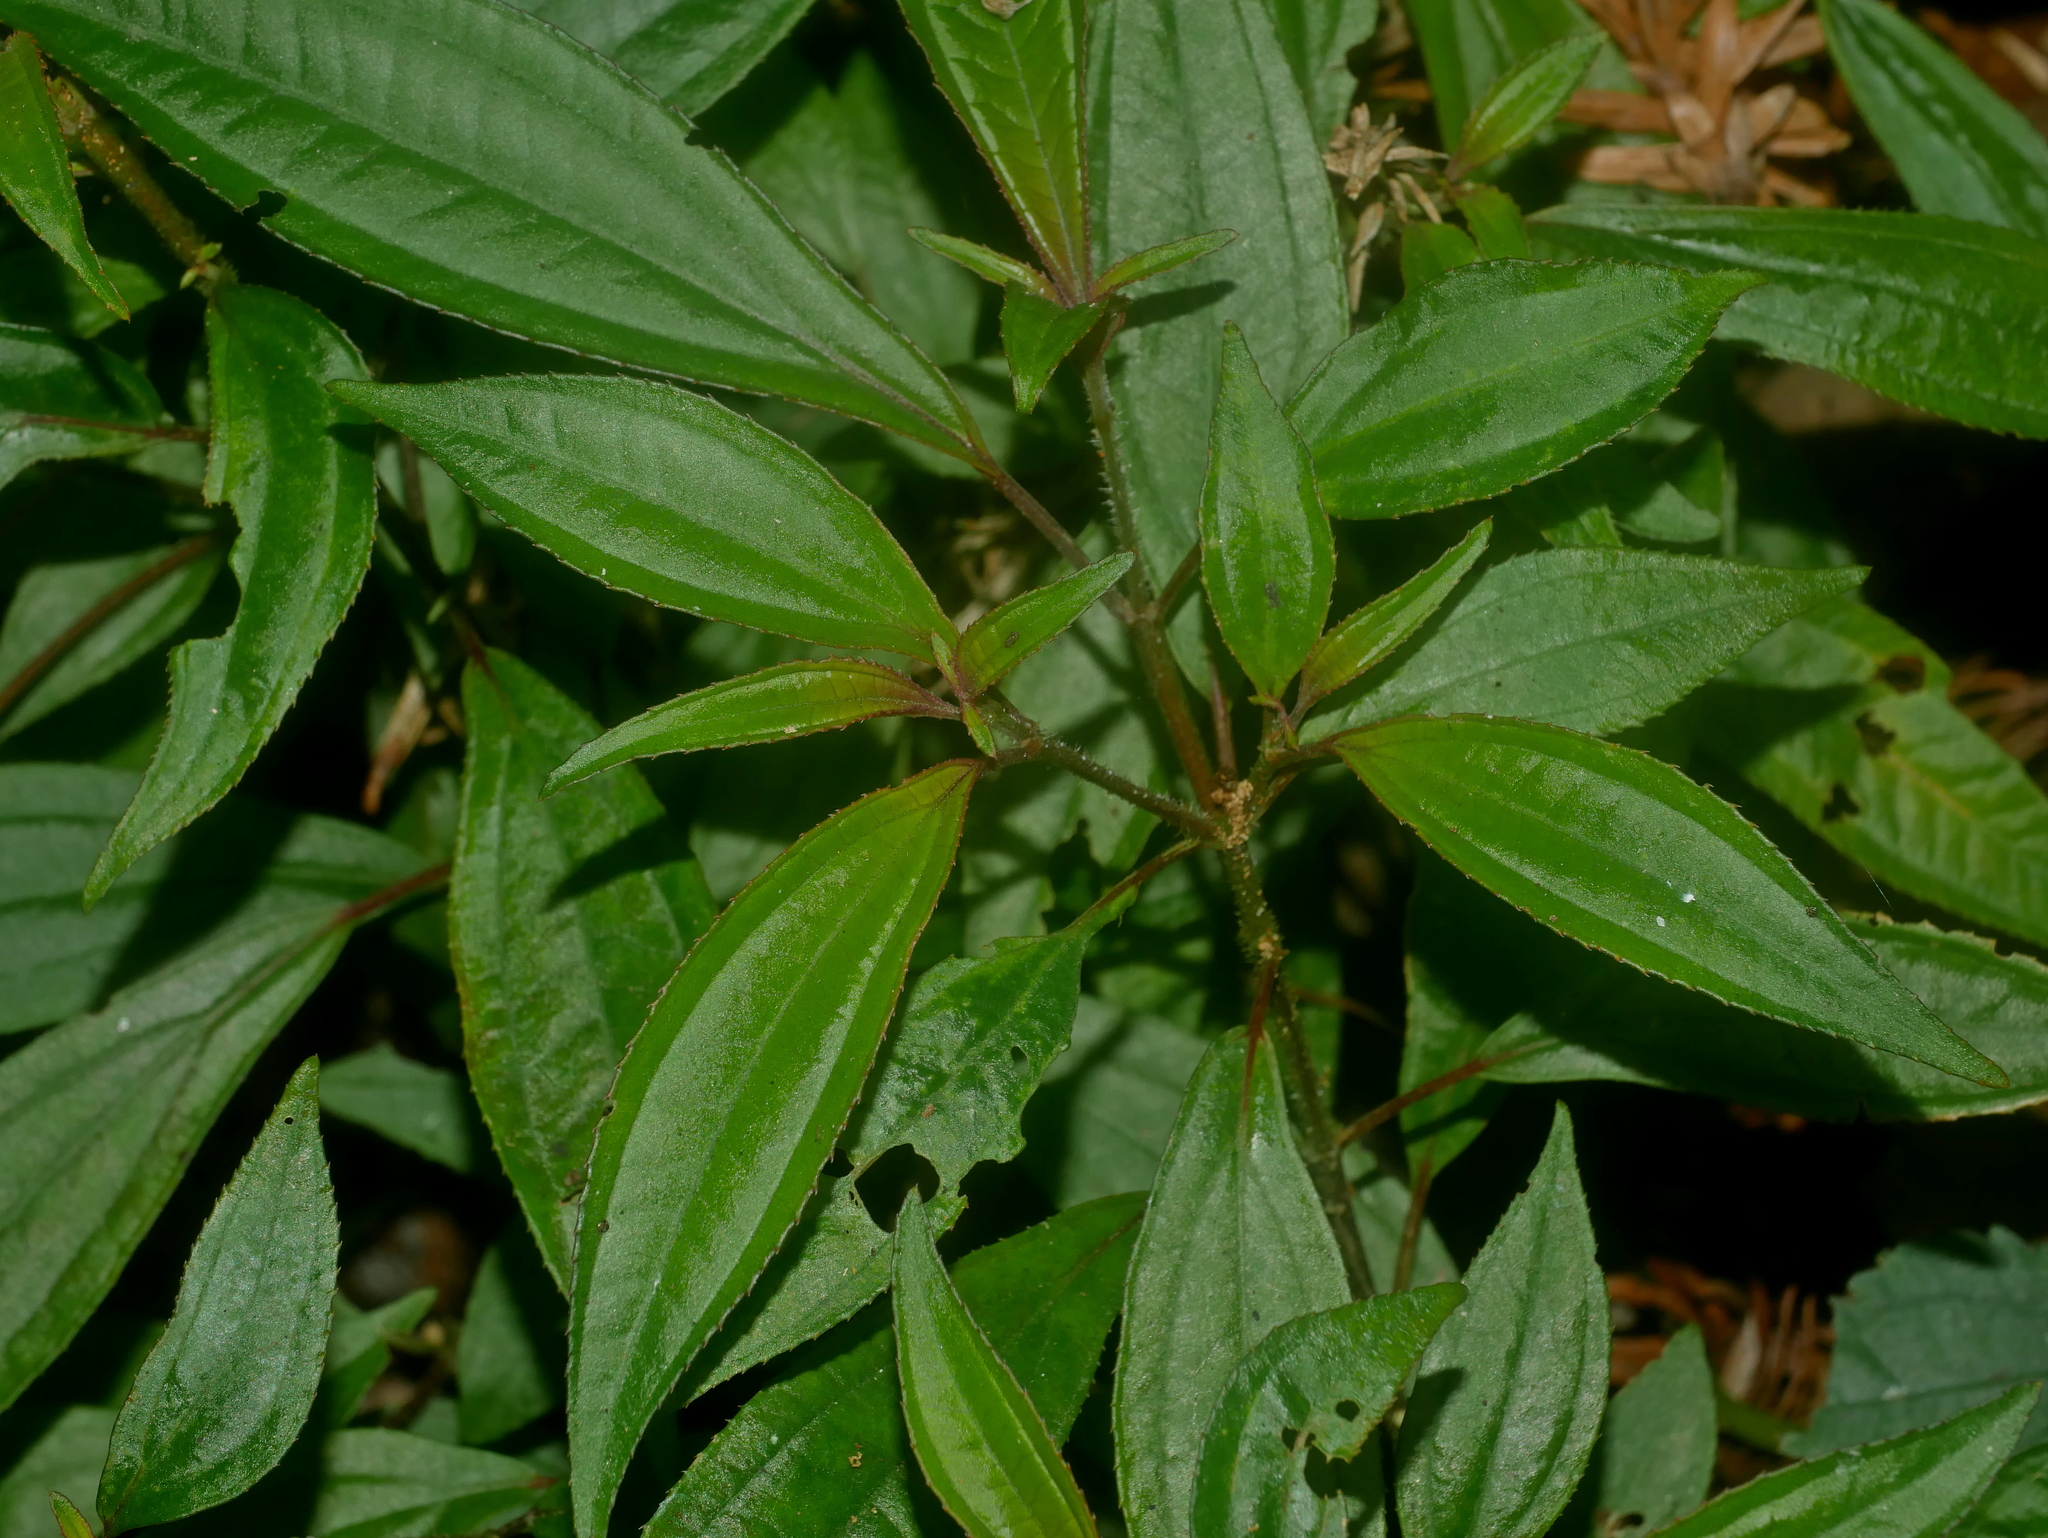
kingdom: Plantae
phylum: Tracheophyta
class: Magnoliopsida
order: Myrtales
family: Melastomataceae
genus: Bredia
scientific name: Bredia oldhamii
